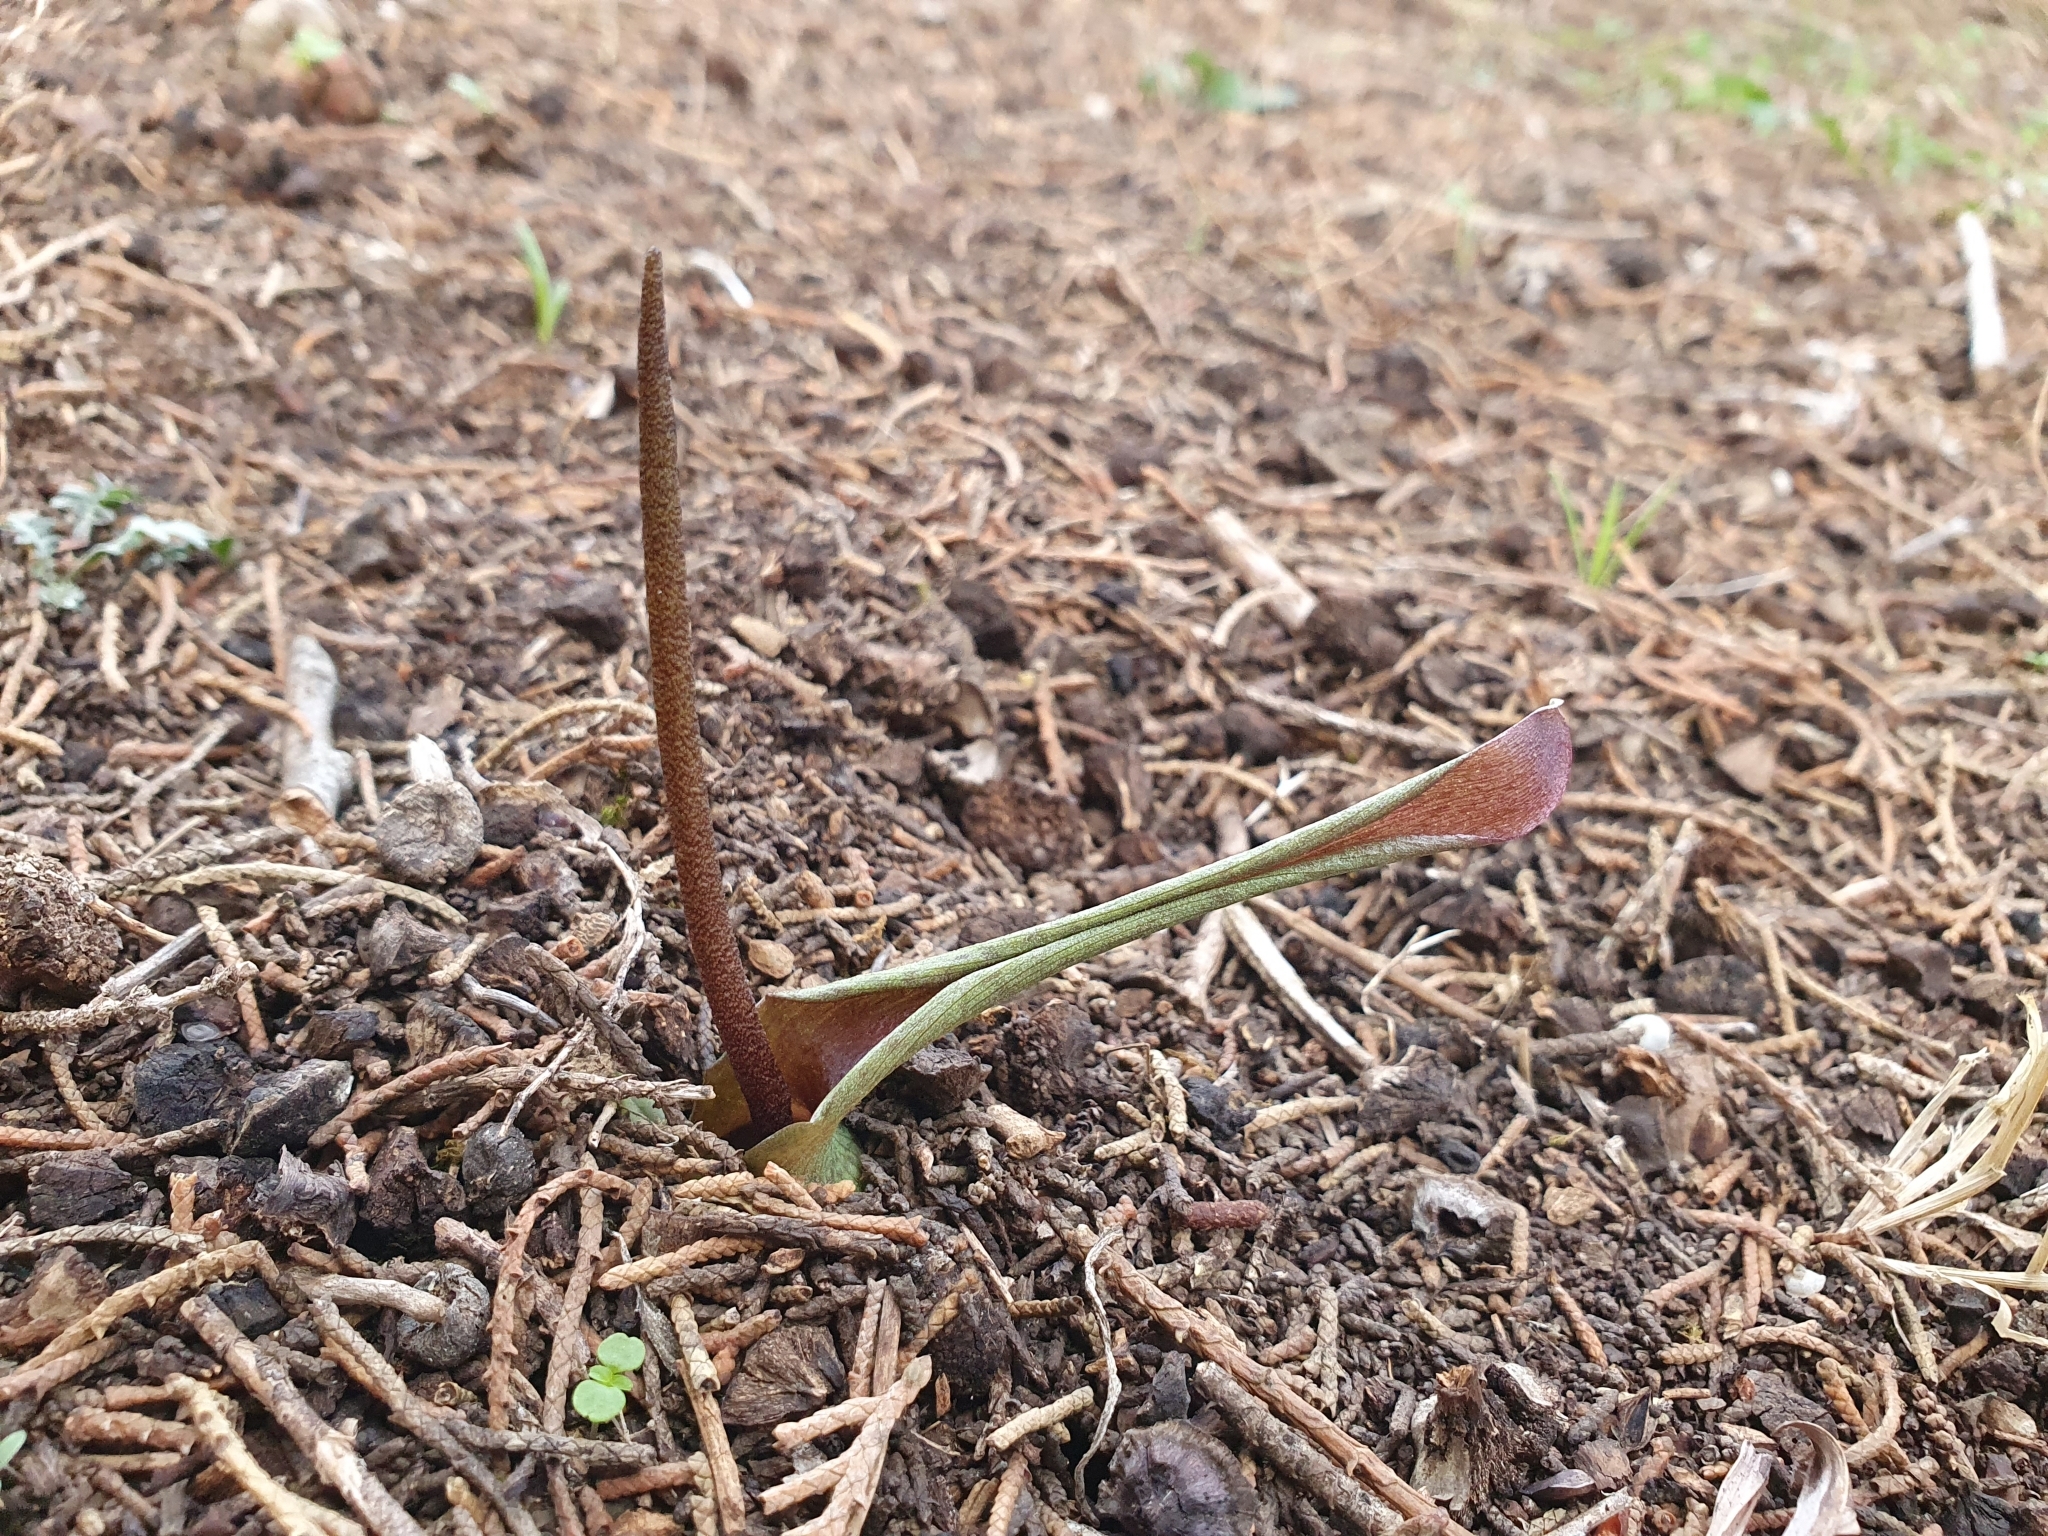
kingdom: Plantae
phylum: Tracheophyta
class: Liliopsida
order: Alismatales
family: Araceae
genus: Biarum
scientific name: Biarum dispar
